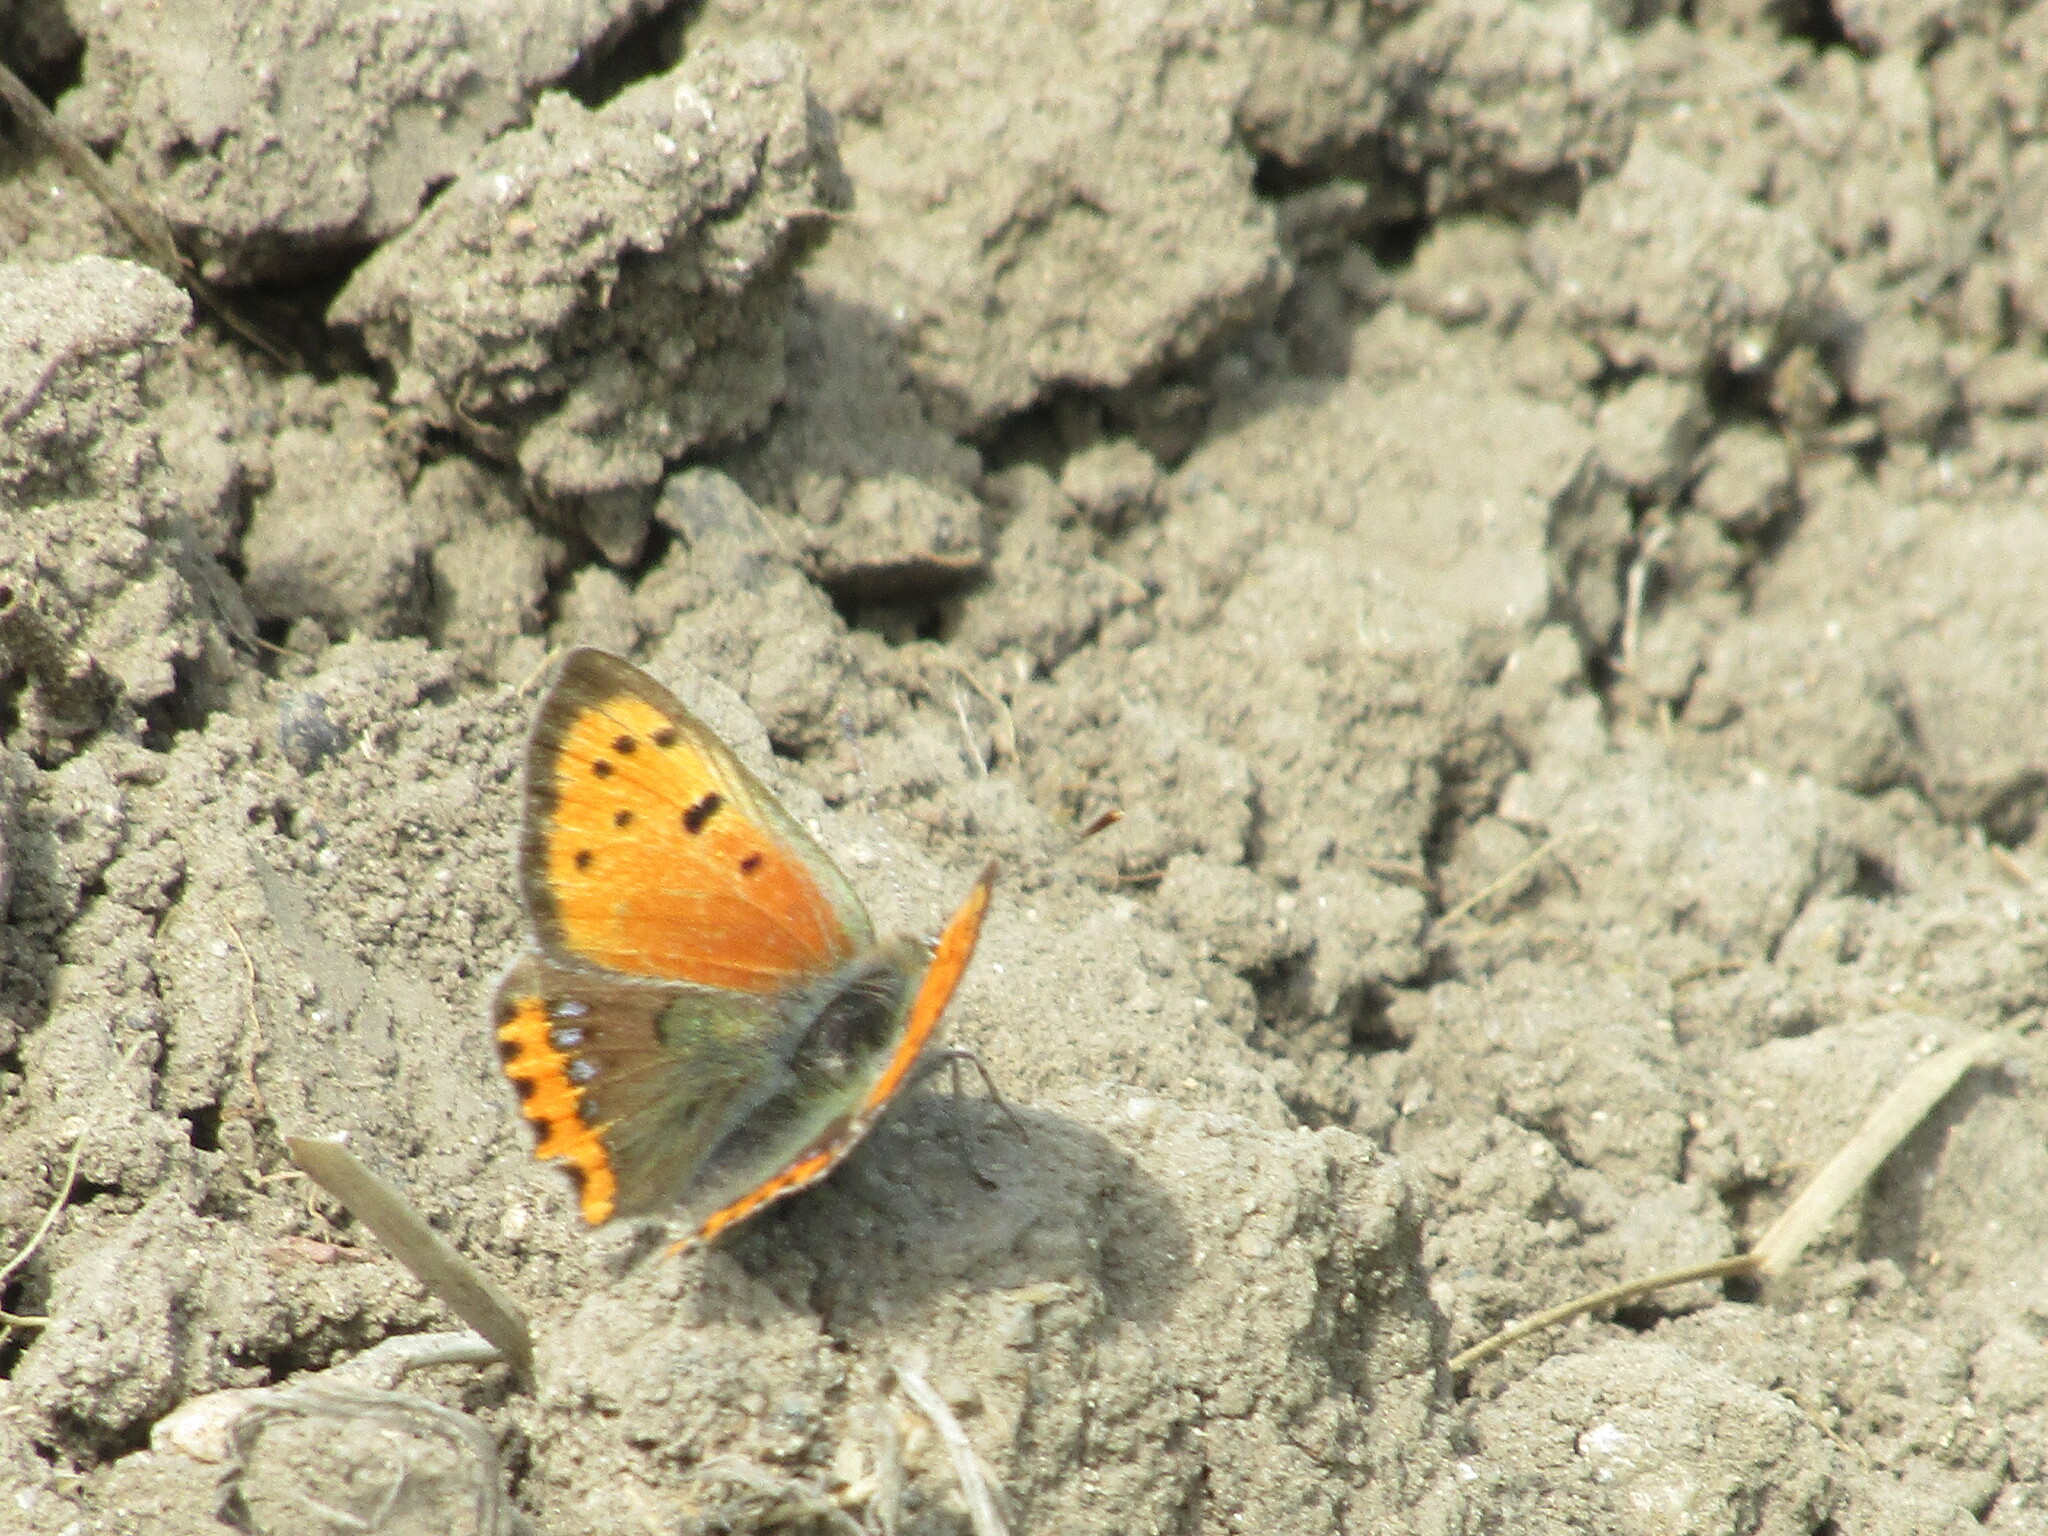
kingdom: Animalia
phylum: Arthropoda
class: Insecta
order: Lepidoptera
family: Lycaenidae
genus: Lycaena
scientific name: Lycaena phlaeas
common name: Small copper
